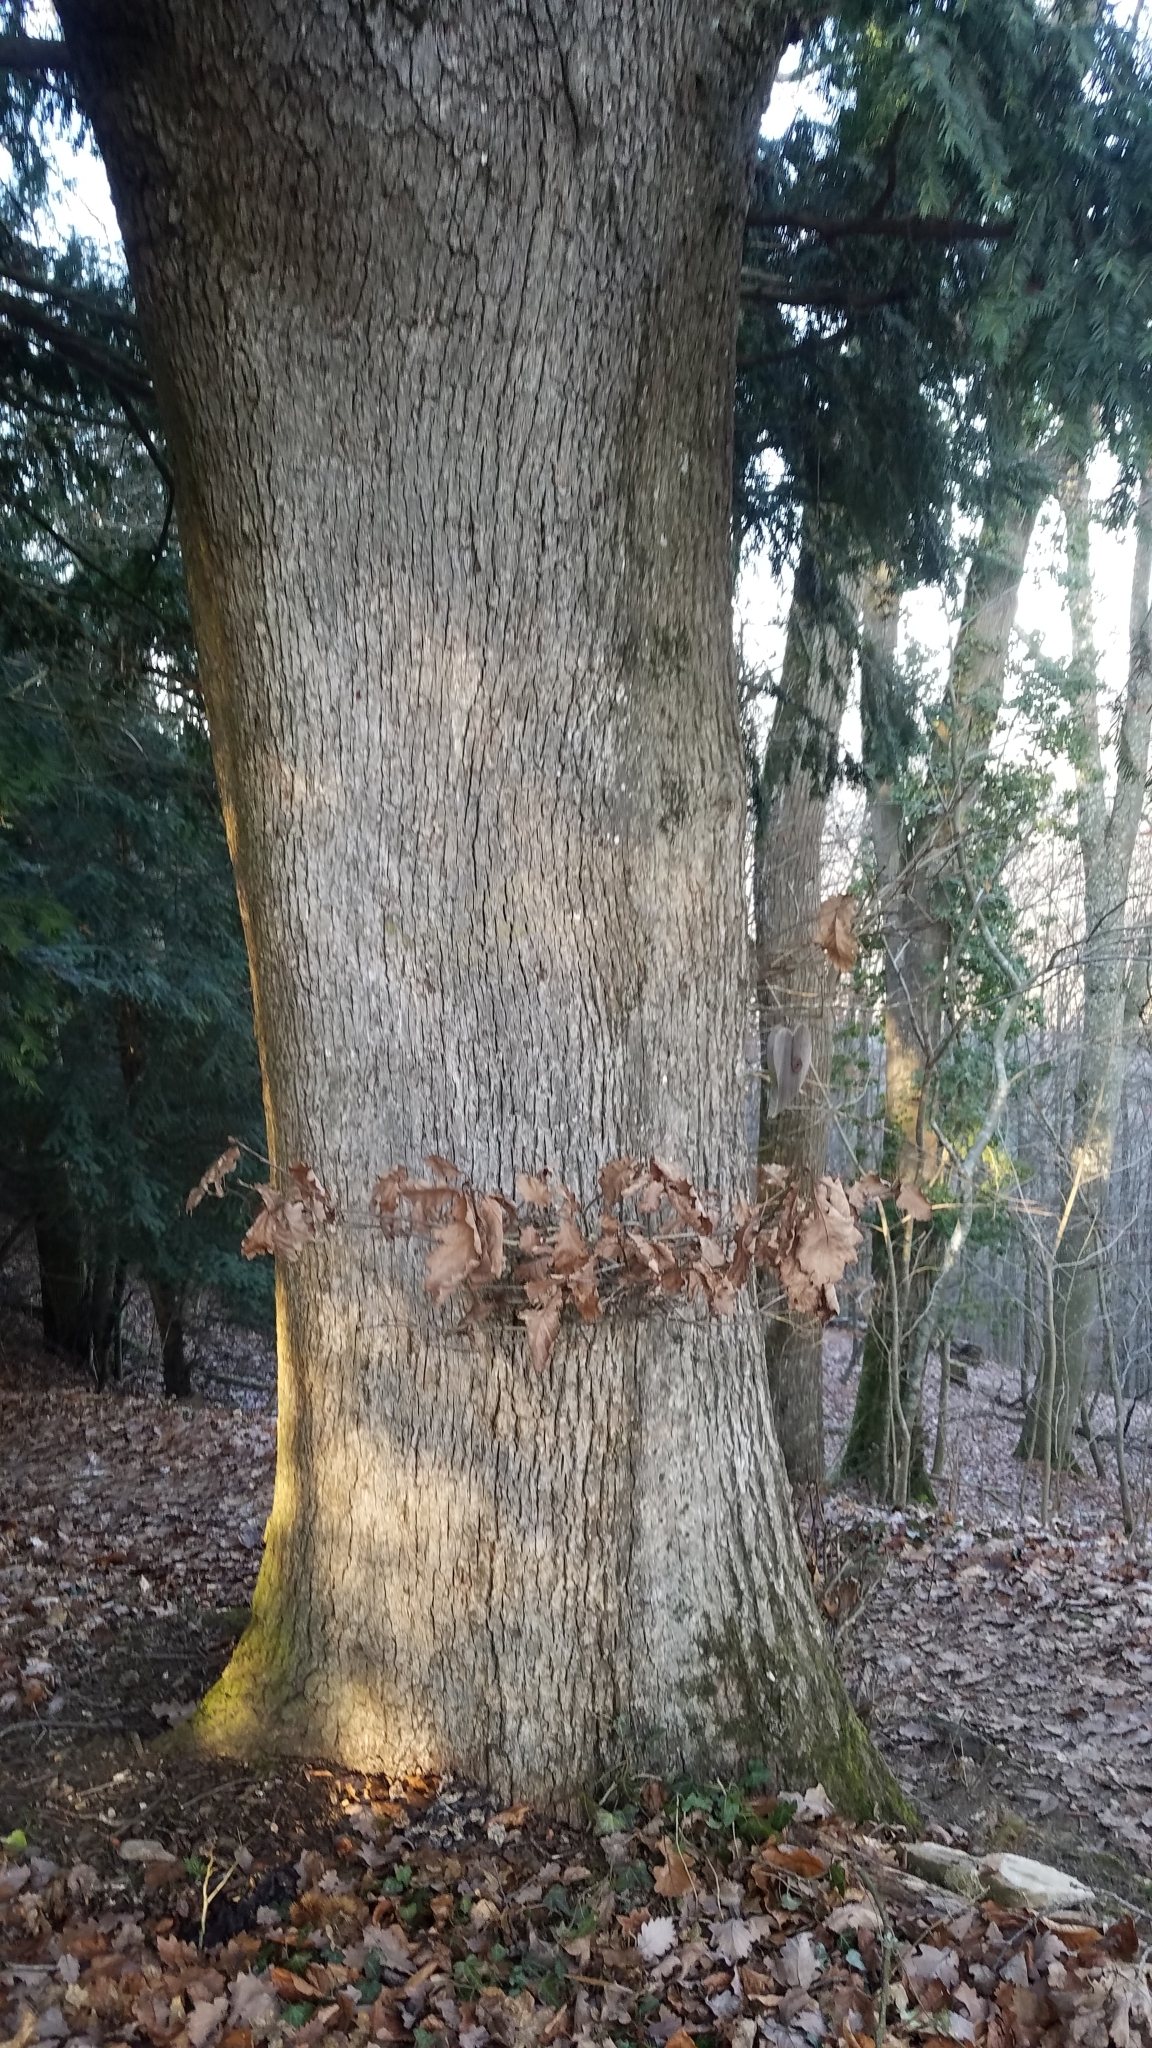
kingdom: Plantae
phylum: Tracheophyta
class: Magnoliopsida
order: Fagales
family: Fagaceae
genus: Quercus
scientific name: Quercus petraea
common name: Sessile oak
